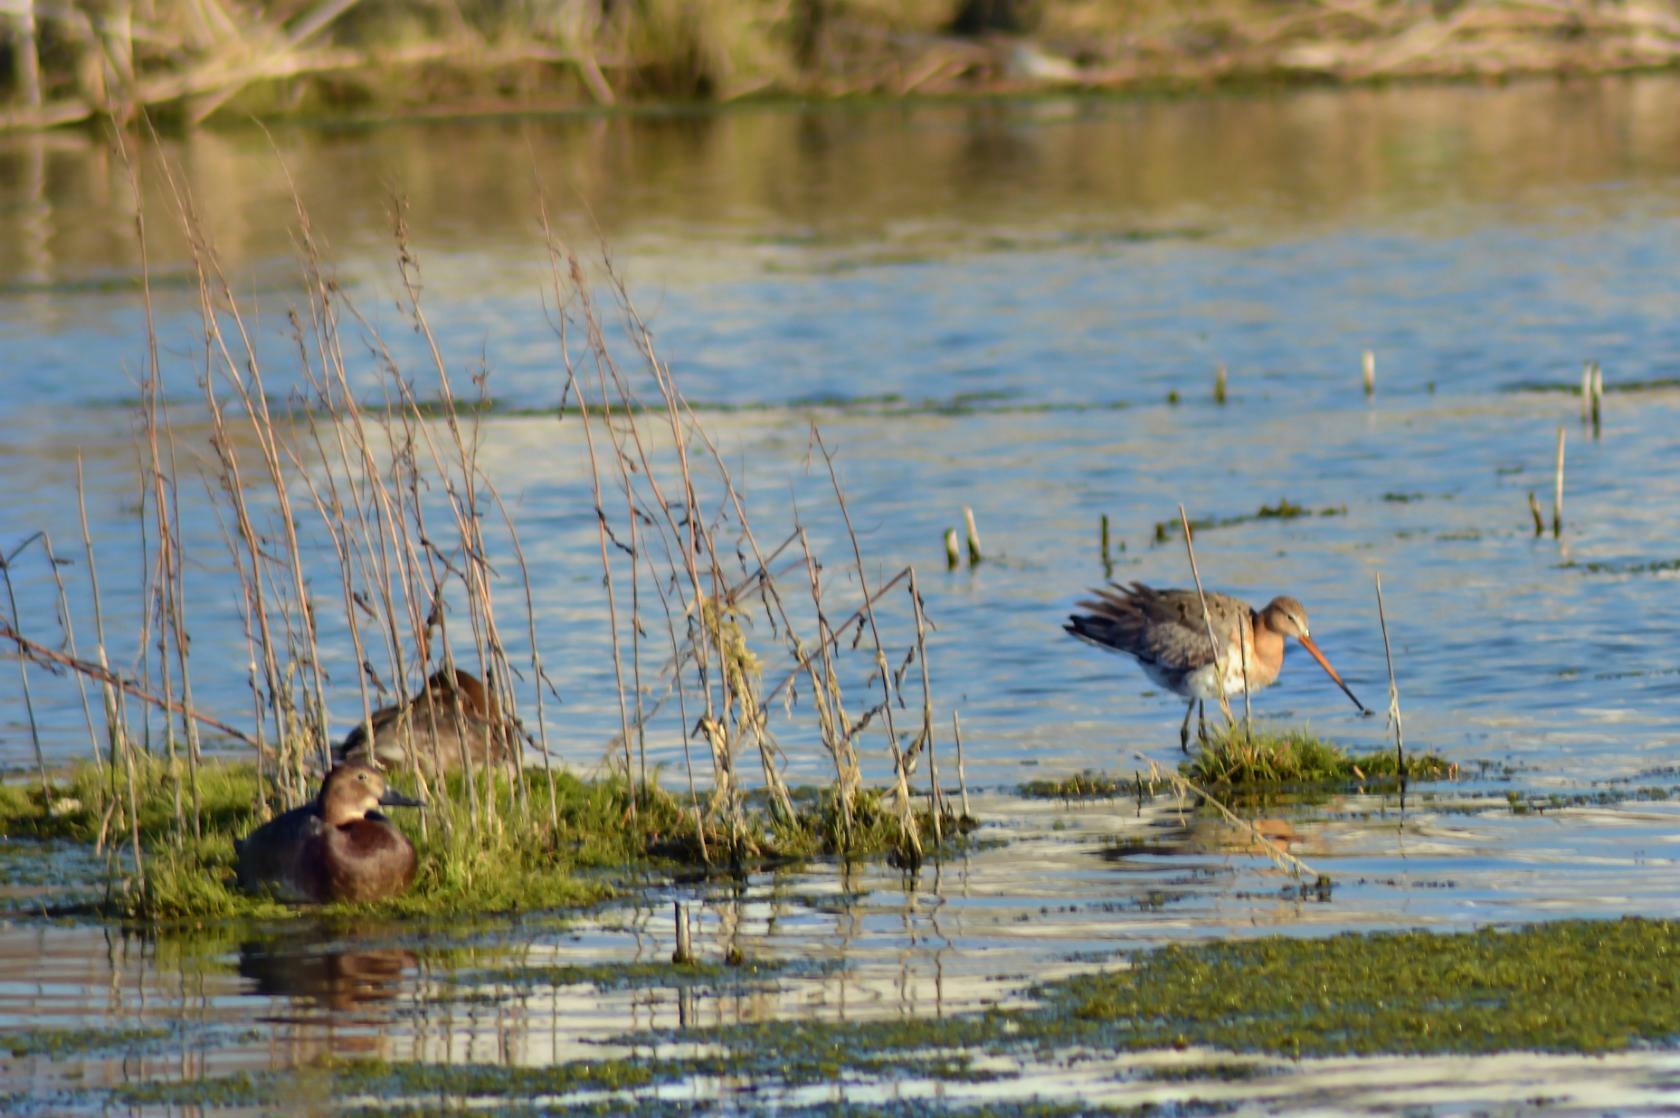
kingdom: Animalia
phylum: Chordata
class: Aves
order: Charadriiformes
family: Scolopacidae
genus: Limosa
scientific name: Limosa limosa
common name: Black-tailed godwit
